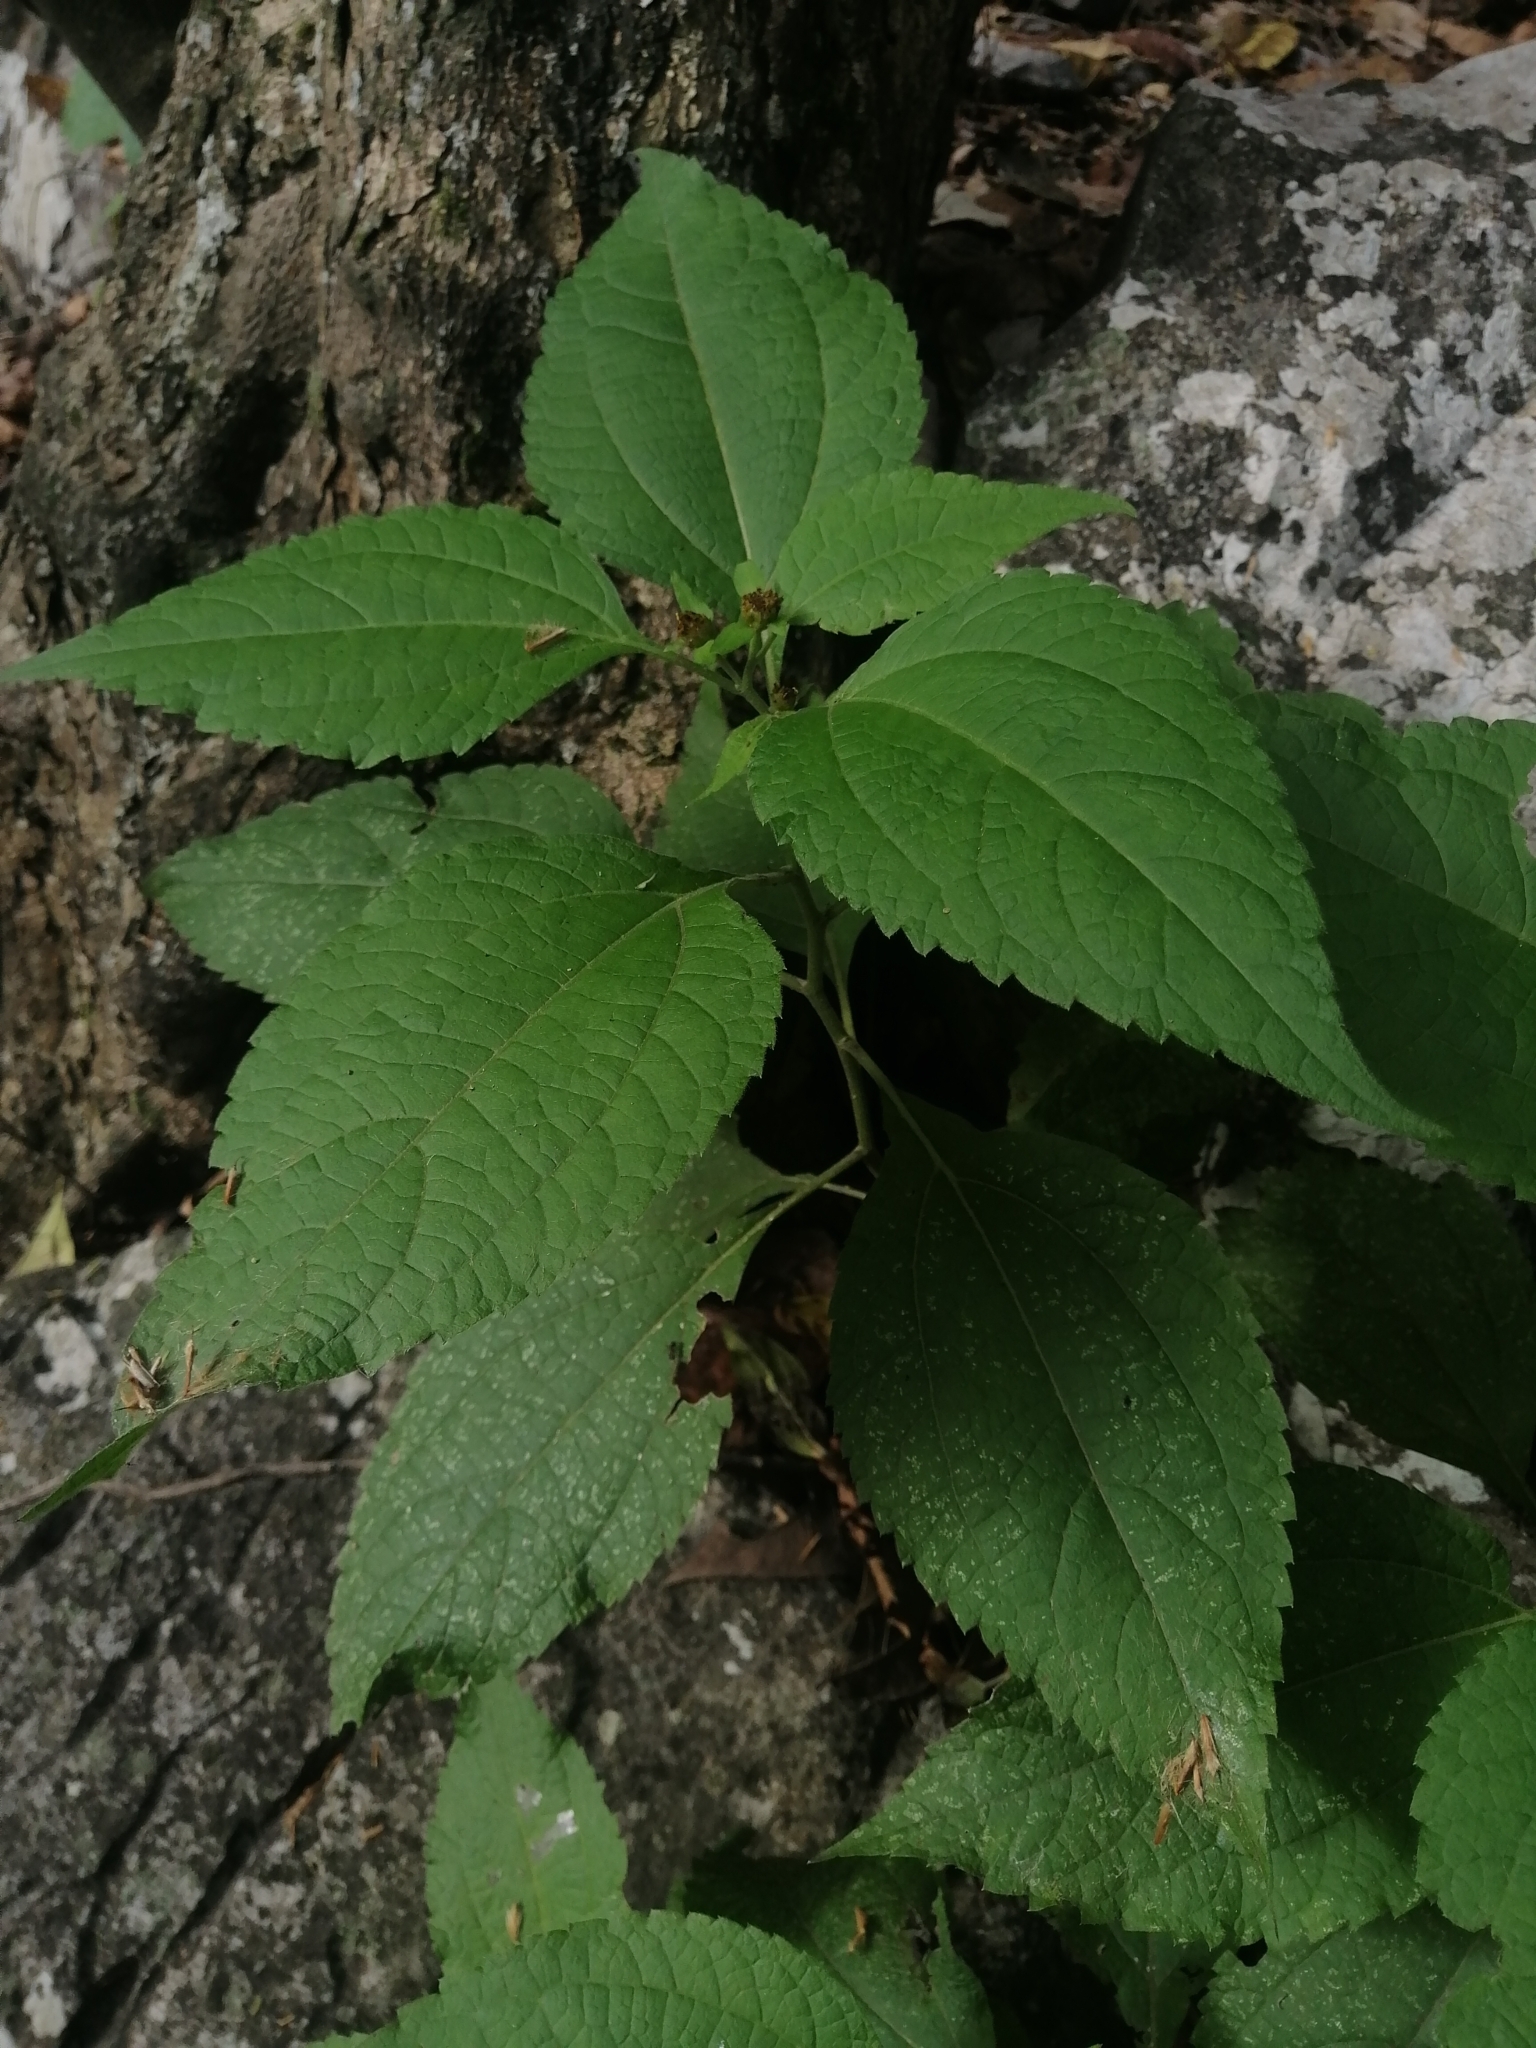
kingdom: Plantae
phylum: Tracheophyta
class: Magnoliopsida
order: Asterales
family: Asteraceae
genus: Greenmaniella
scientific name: Greenmaniella resinosa
